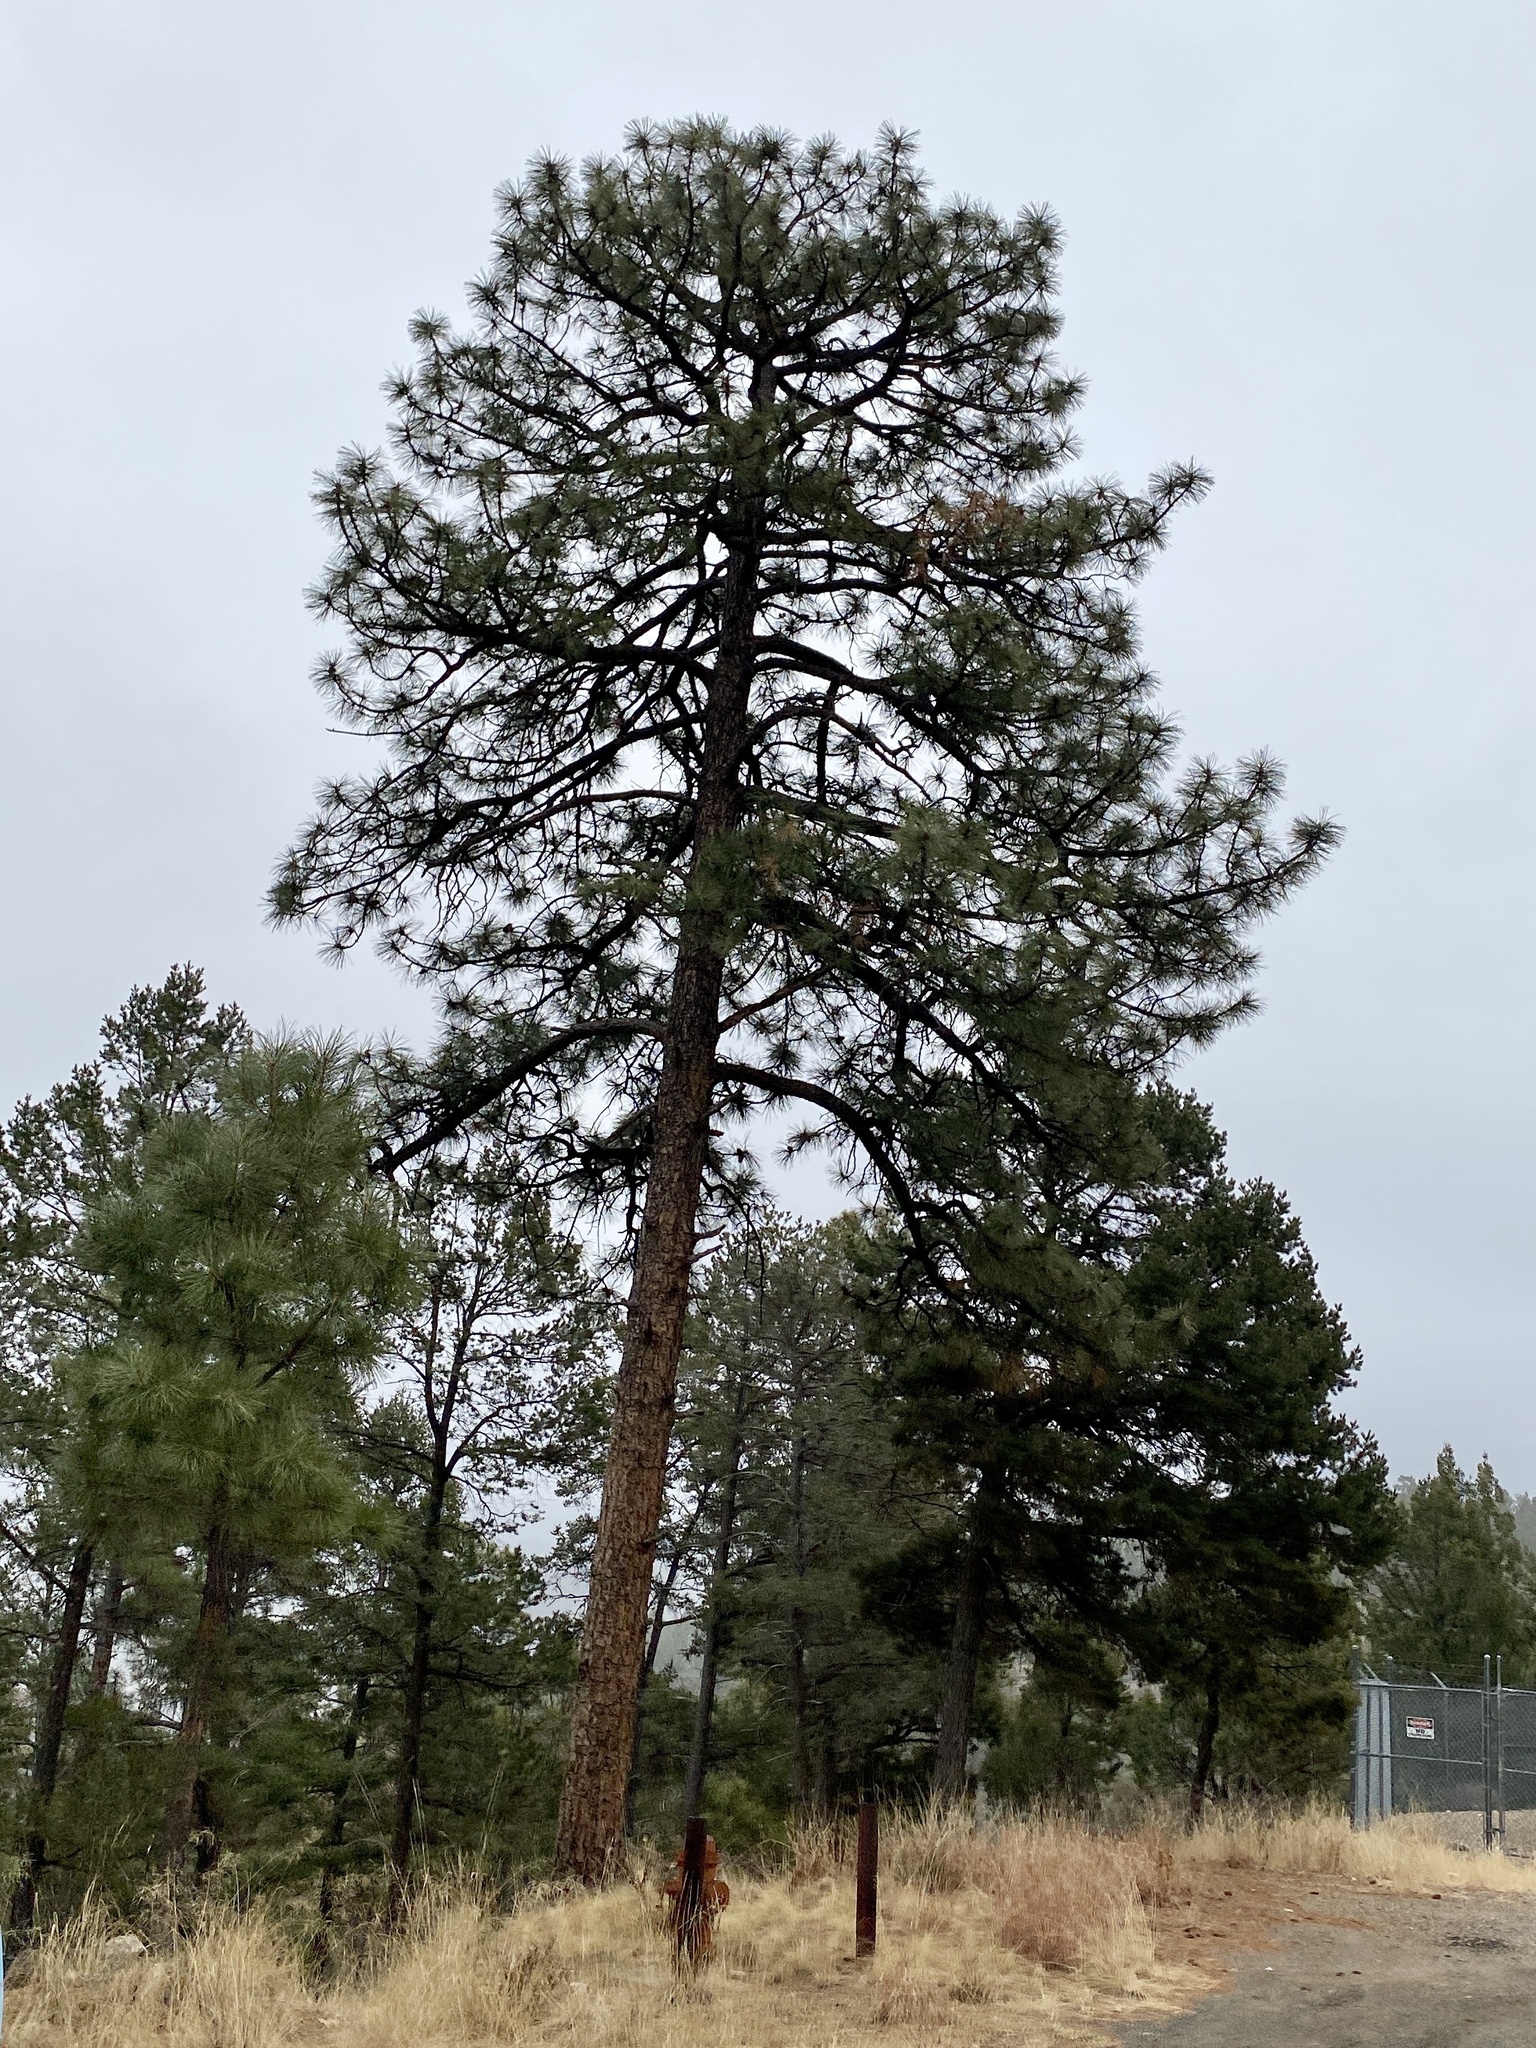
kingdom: Plantae
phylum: Tracheophyta
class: Pinopsida
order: Pinales
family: Pinaceae
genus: Pinus
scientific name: Pinus ponderosa
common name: Western yellow-pine
